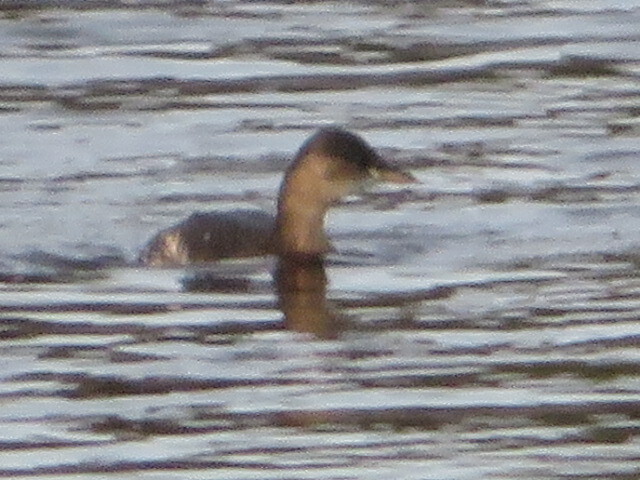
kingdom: Animalia
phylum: Chordata
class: Aves
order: Podicipediformes
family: Podicipedidae
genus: Tachybaptus
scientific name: Tachybaptus ruficollis
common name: Little grebe
